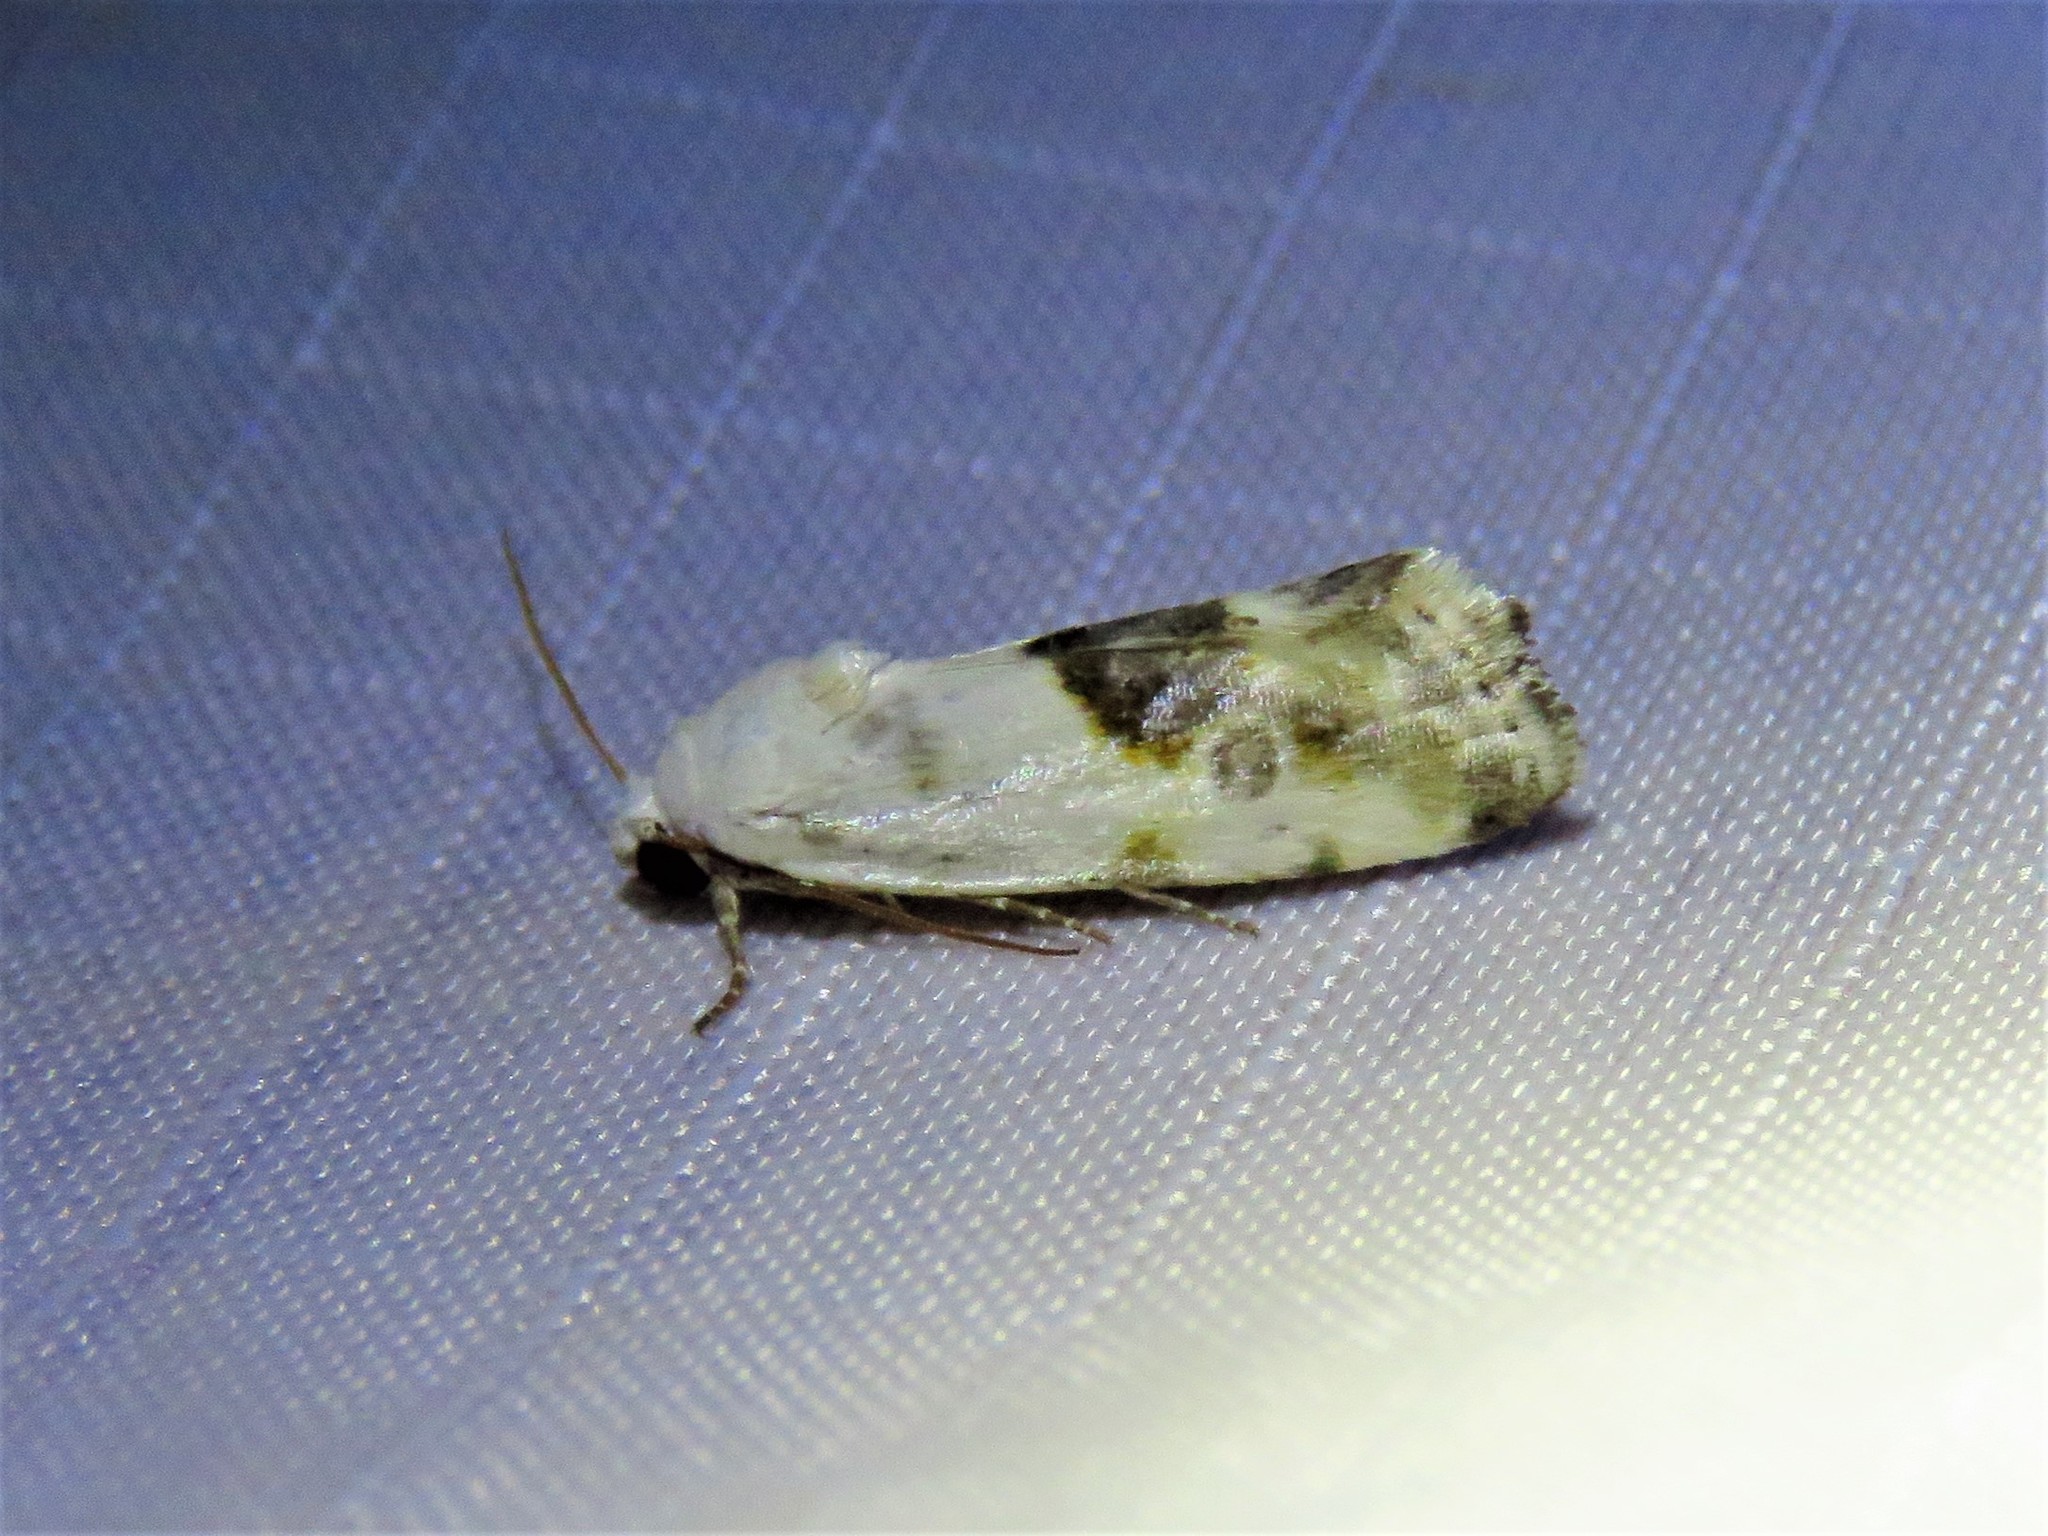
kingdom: Animalia
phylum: Arthropoda
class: Insecta
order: Lepidoptera
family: Noctuidae
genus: Acontia
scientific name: Acontia candefacta
